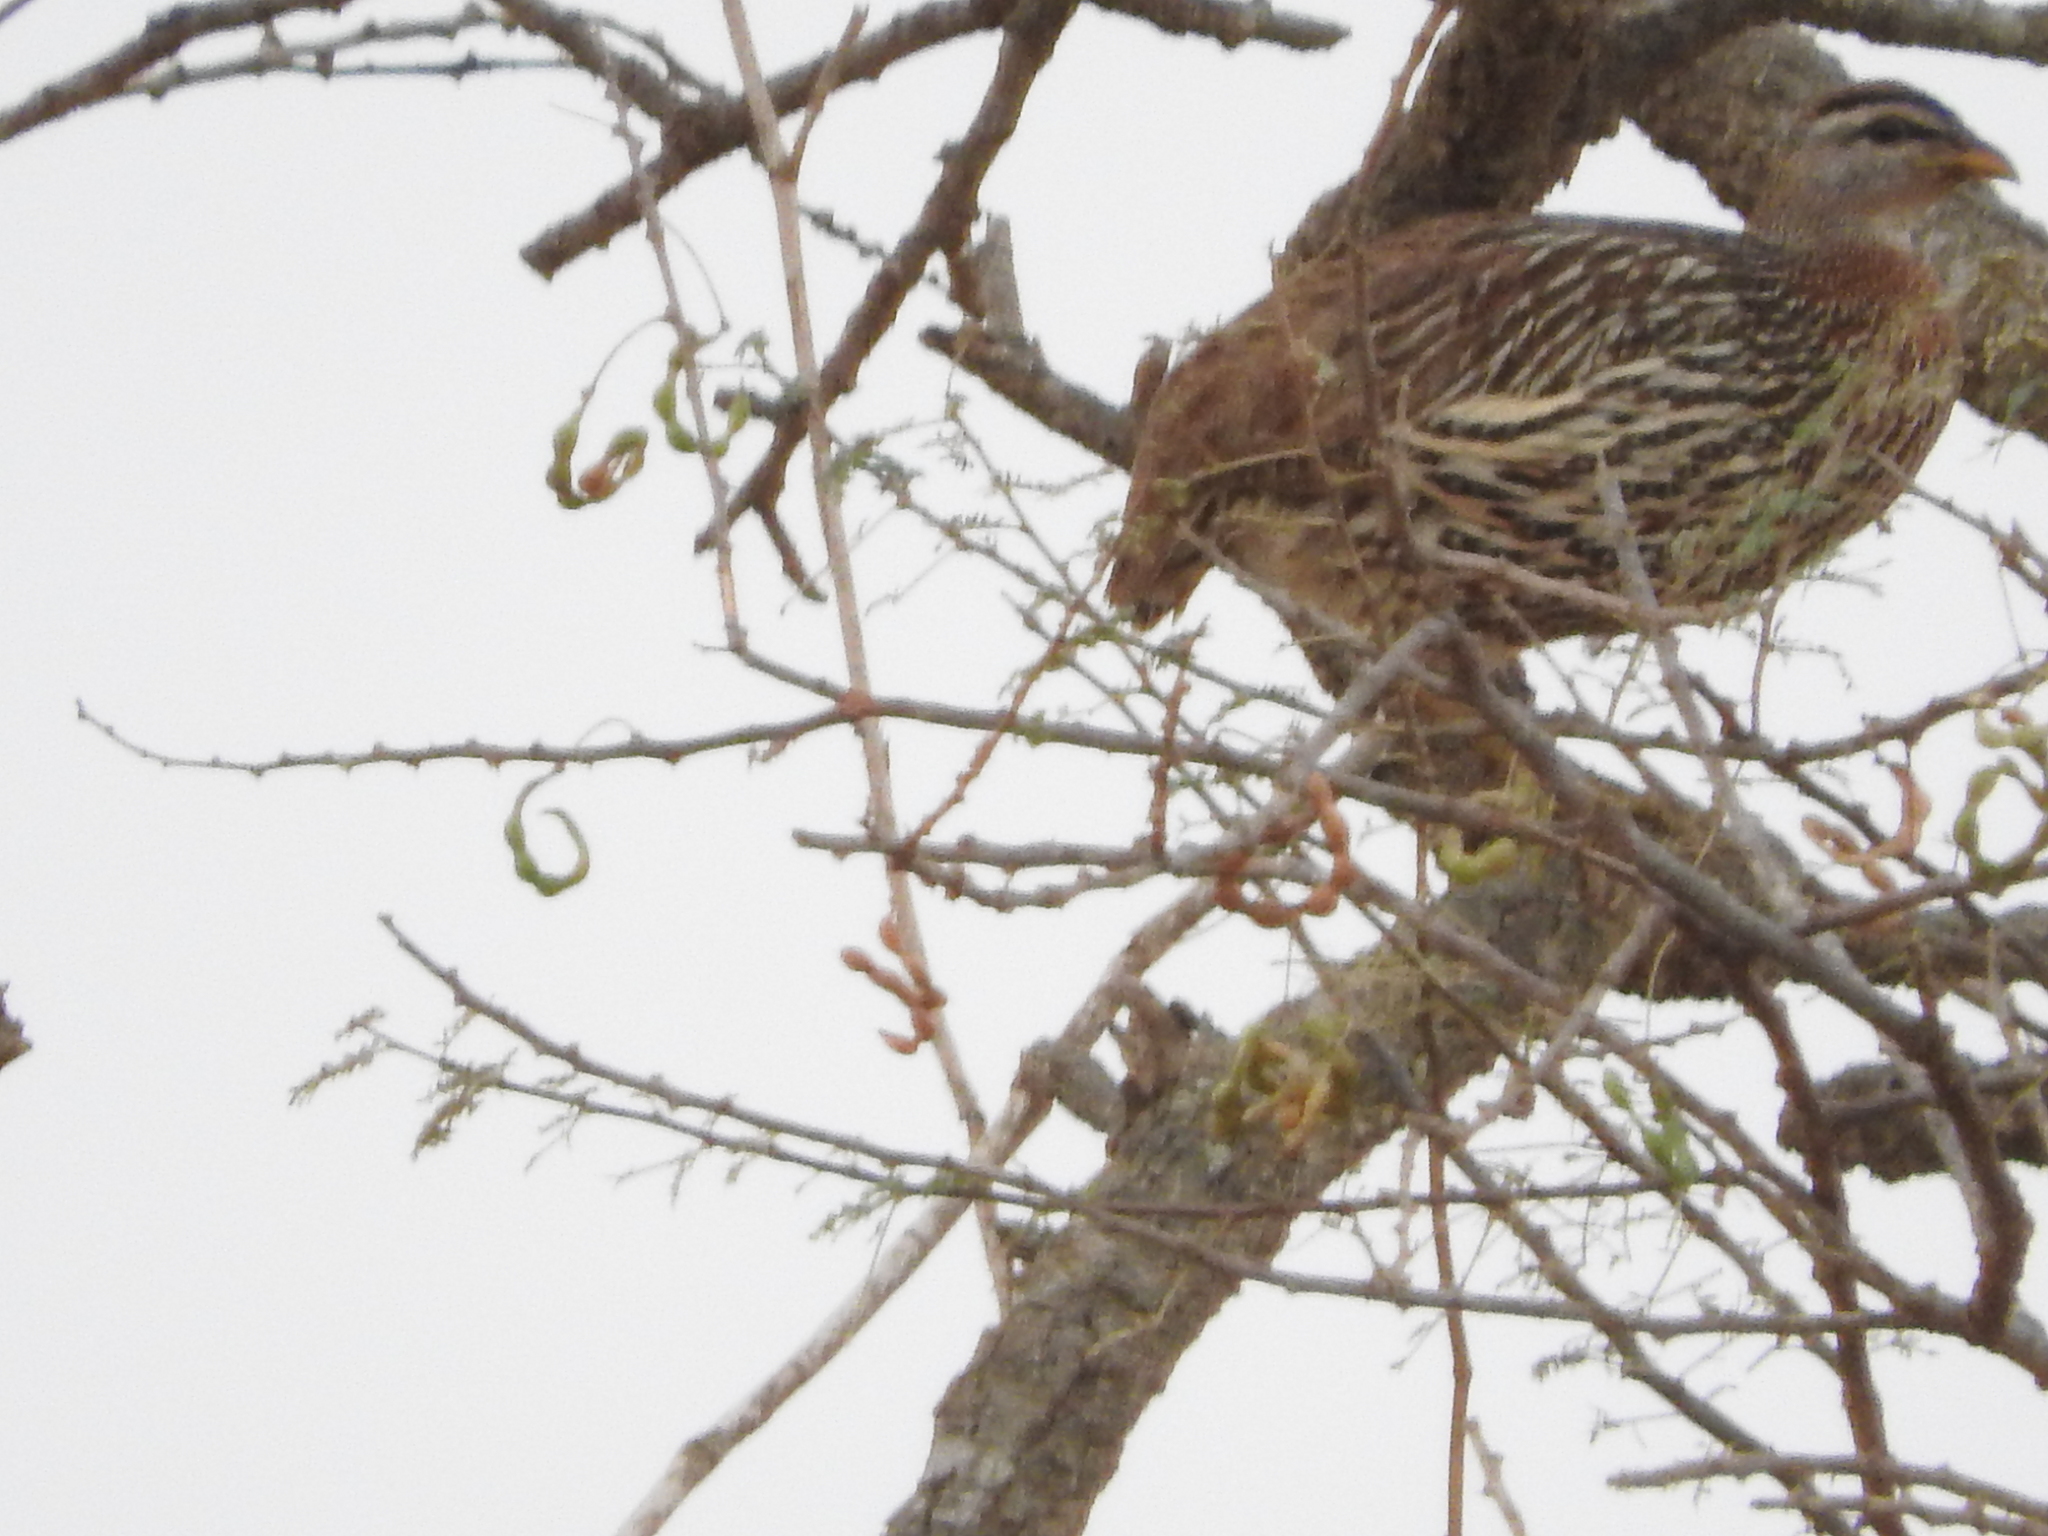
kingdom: Animalia
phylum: Chordata
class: Aves
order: Galliformes
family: Phasianidae
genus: Pternistis
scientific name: Pternistis bicalcaratus
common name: Double-spurred francolin
